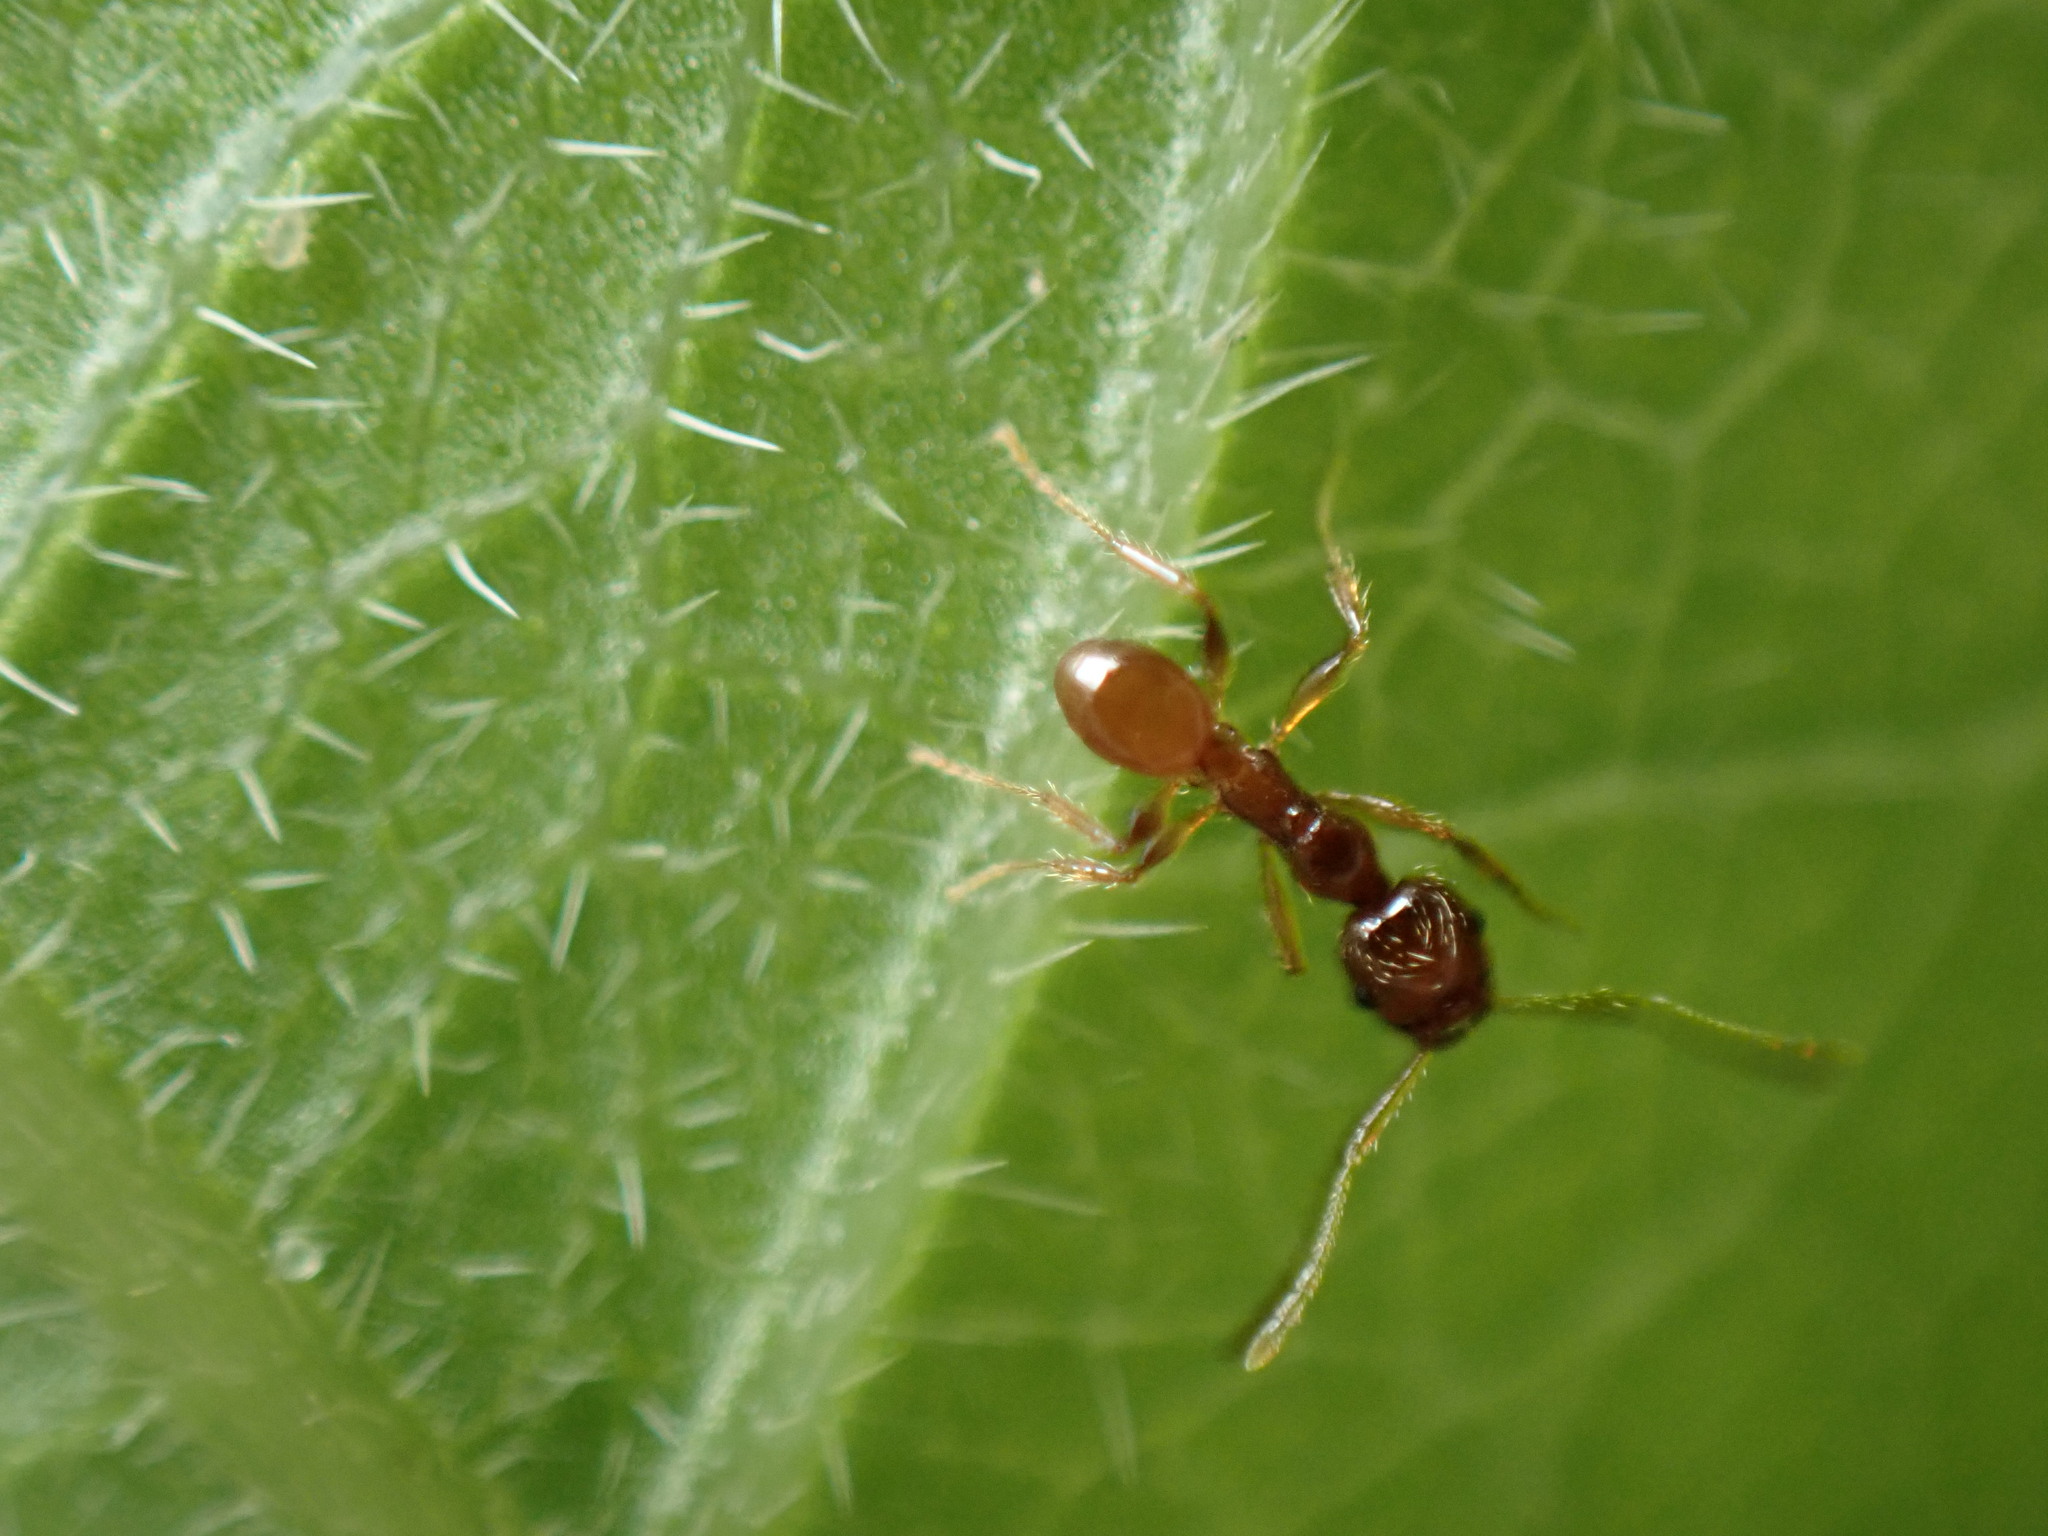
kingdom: Animalia
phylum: Arthropoda
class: Insecta
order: Hymenoptera
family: Formicidae
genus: Pheidole
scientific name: Pheidole pallidula
